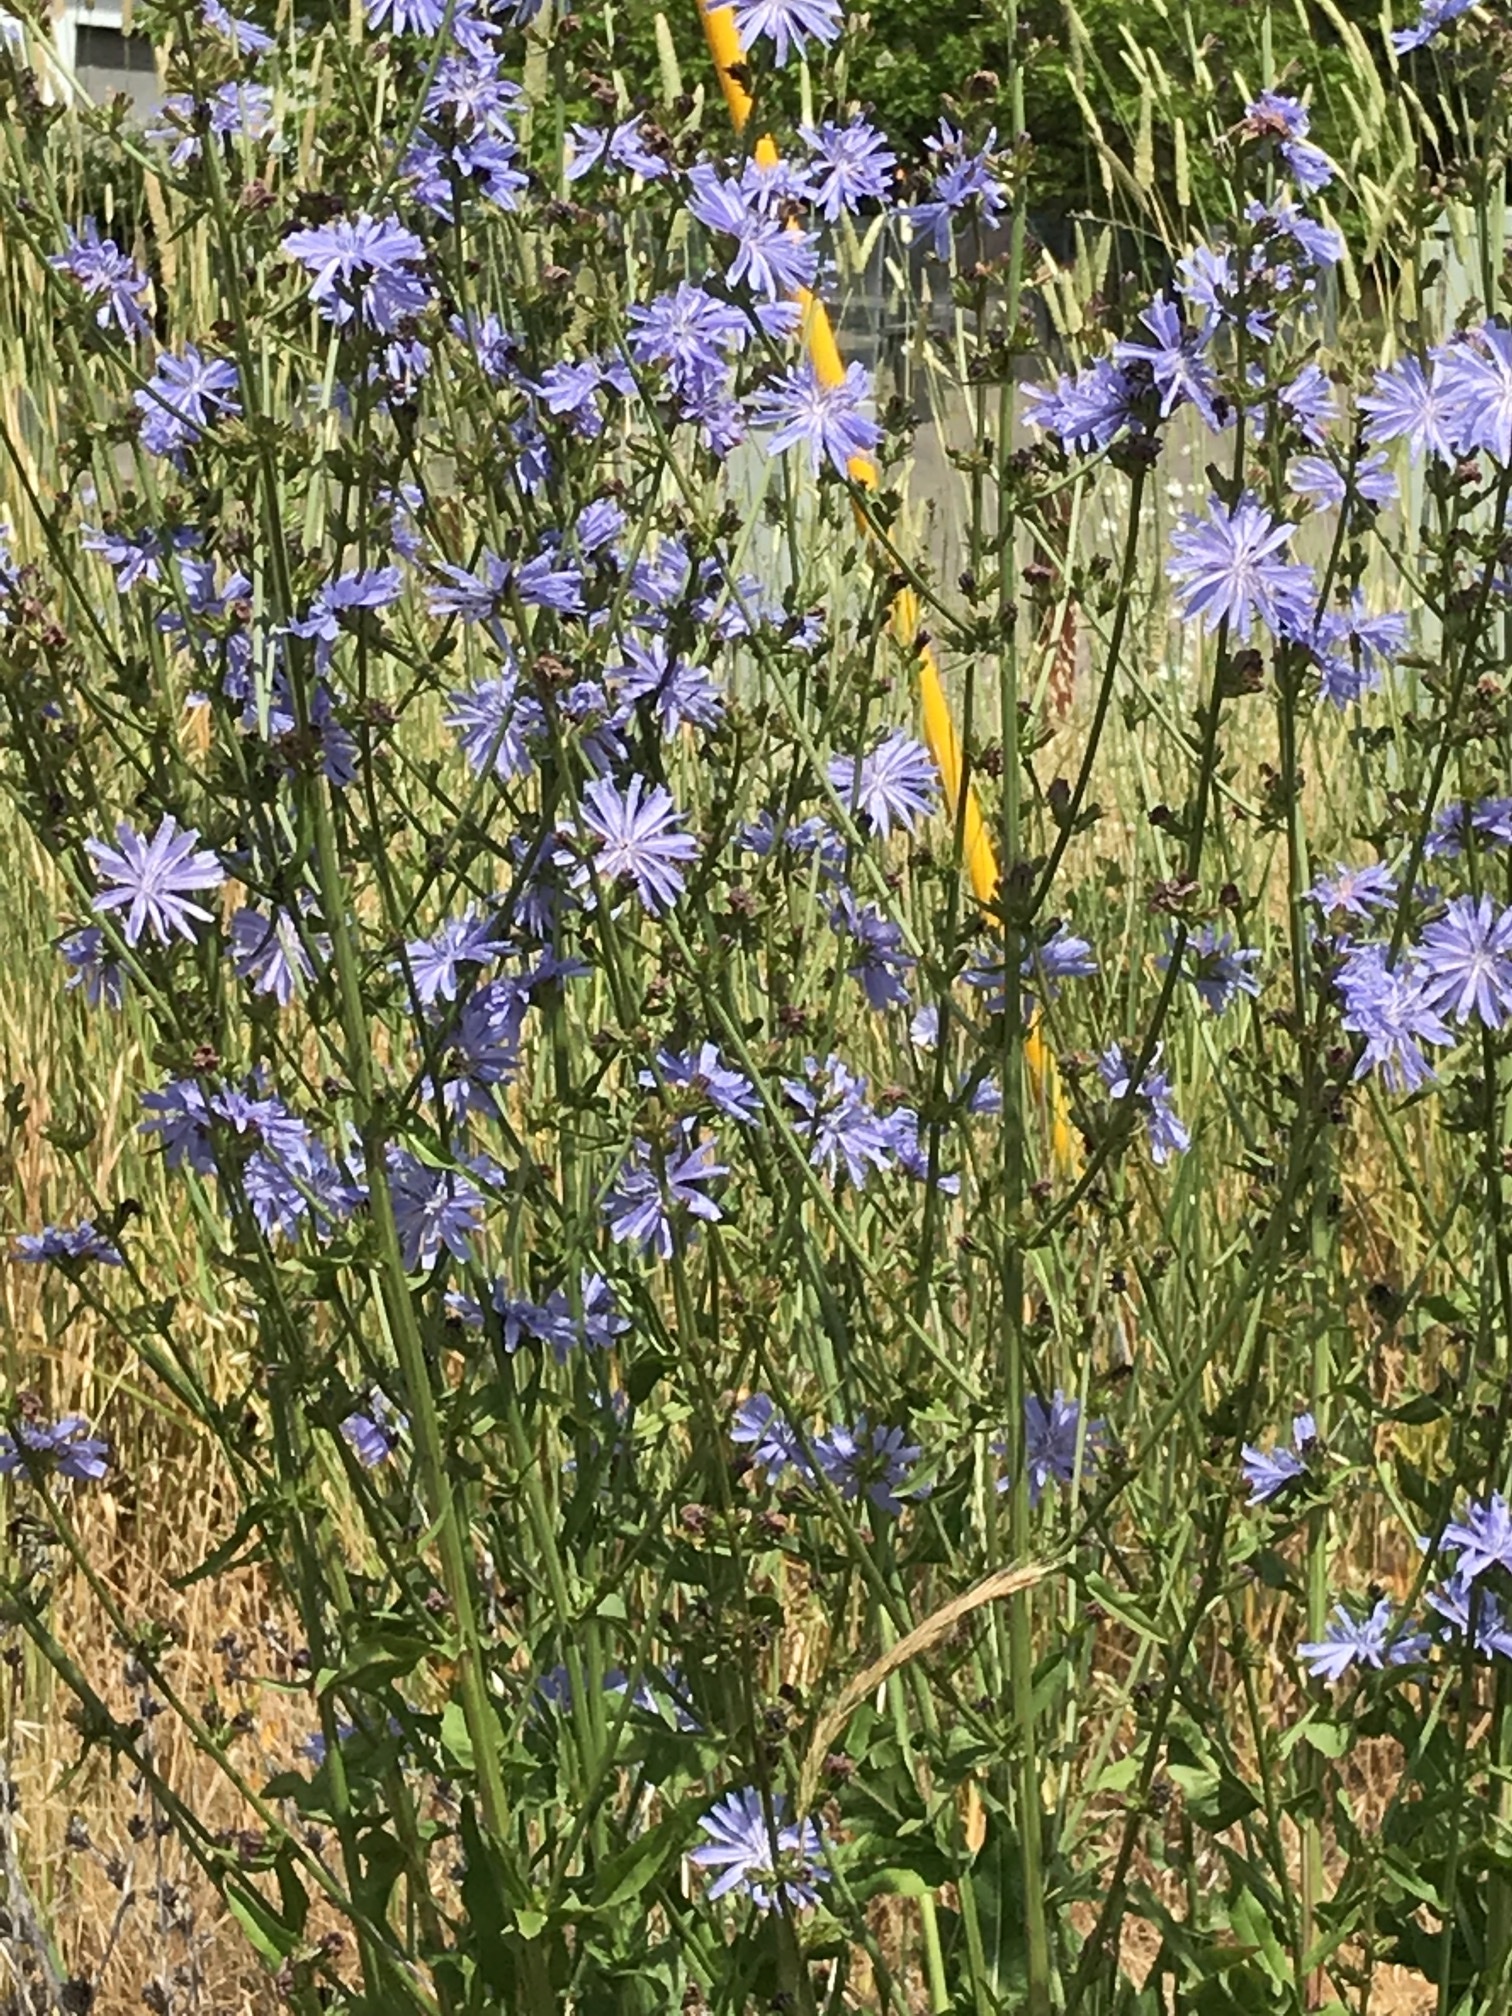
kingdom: Plantae
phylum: Tracheophyta
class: Magnoliopsida
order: Asterales
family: Asteraceae
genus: Cichorium
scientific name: Cichorium intybus
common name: Chicory
